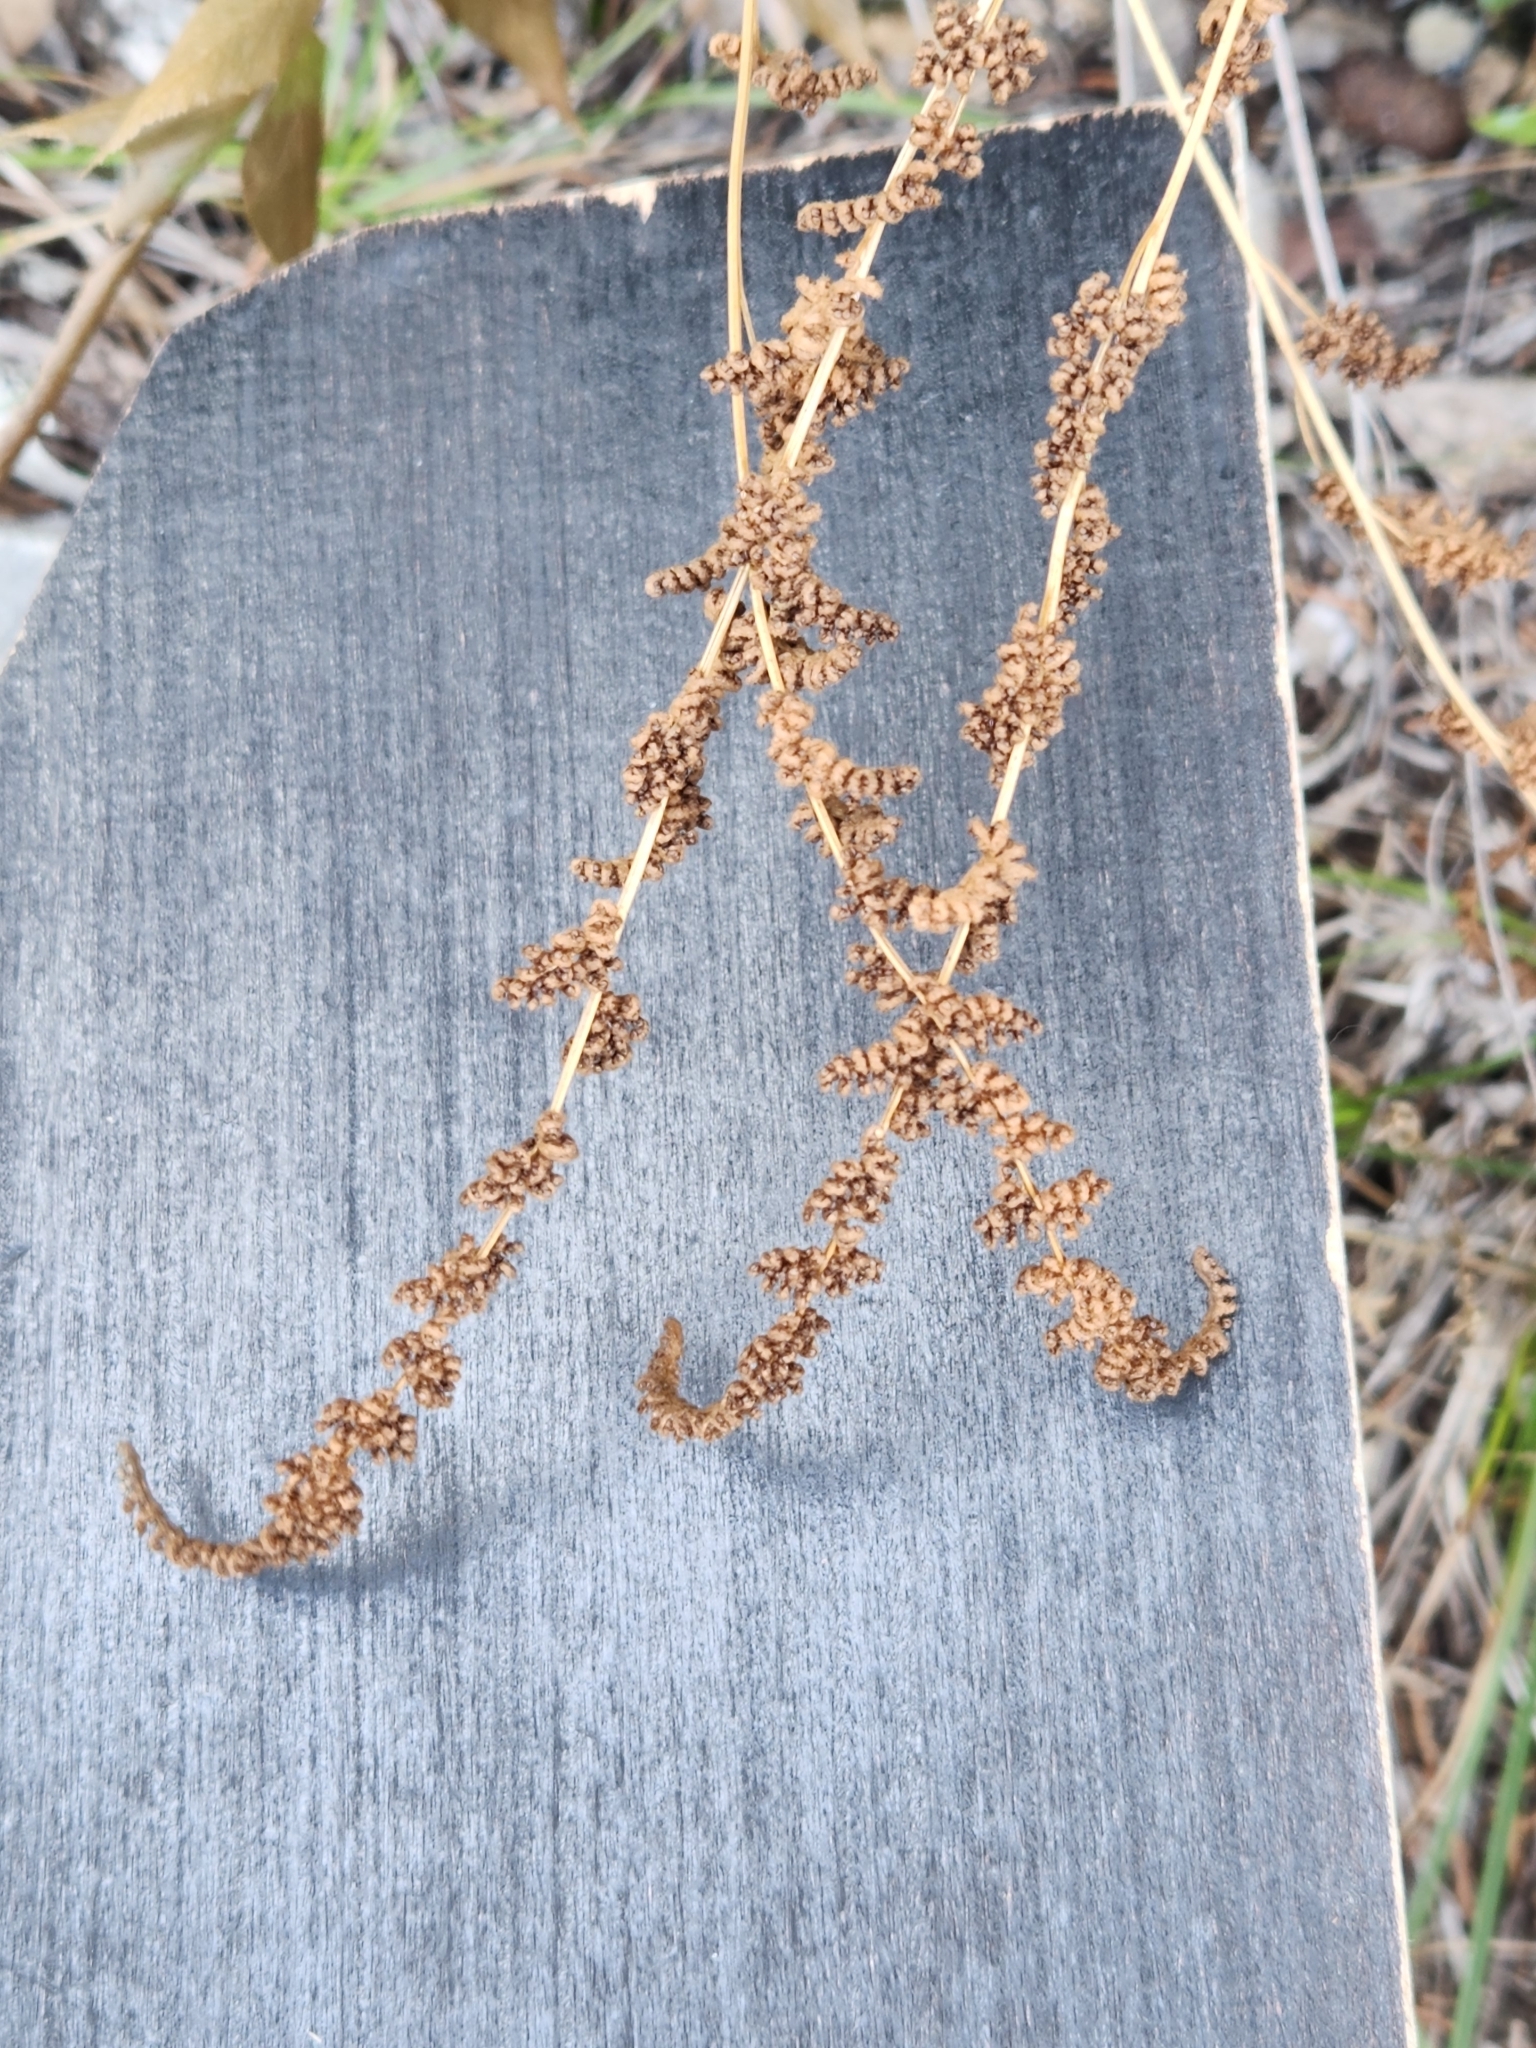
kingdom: Plantae
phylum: Tracheophyta
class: Polypodiopsida
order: Schizaeales
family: Anemiaceae
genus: Anemia
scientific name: Anemia mexicana
